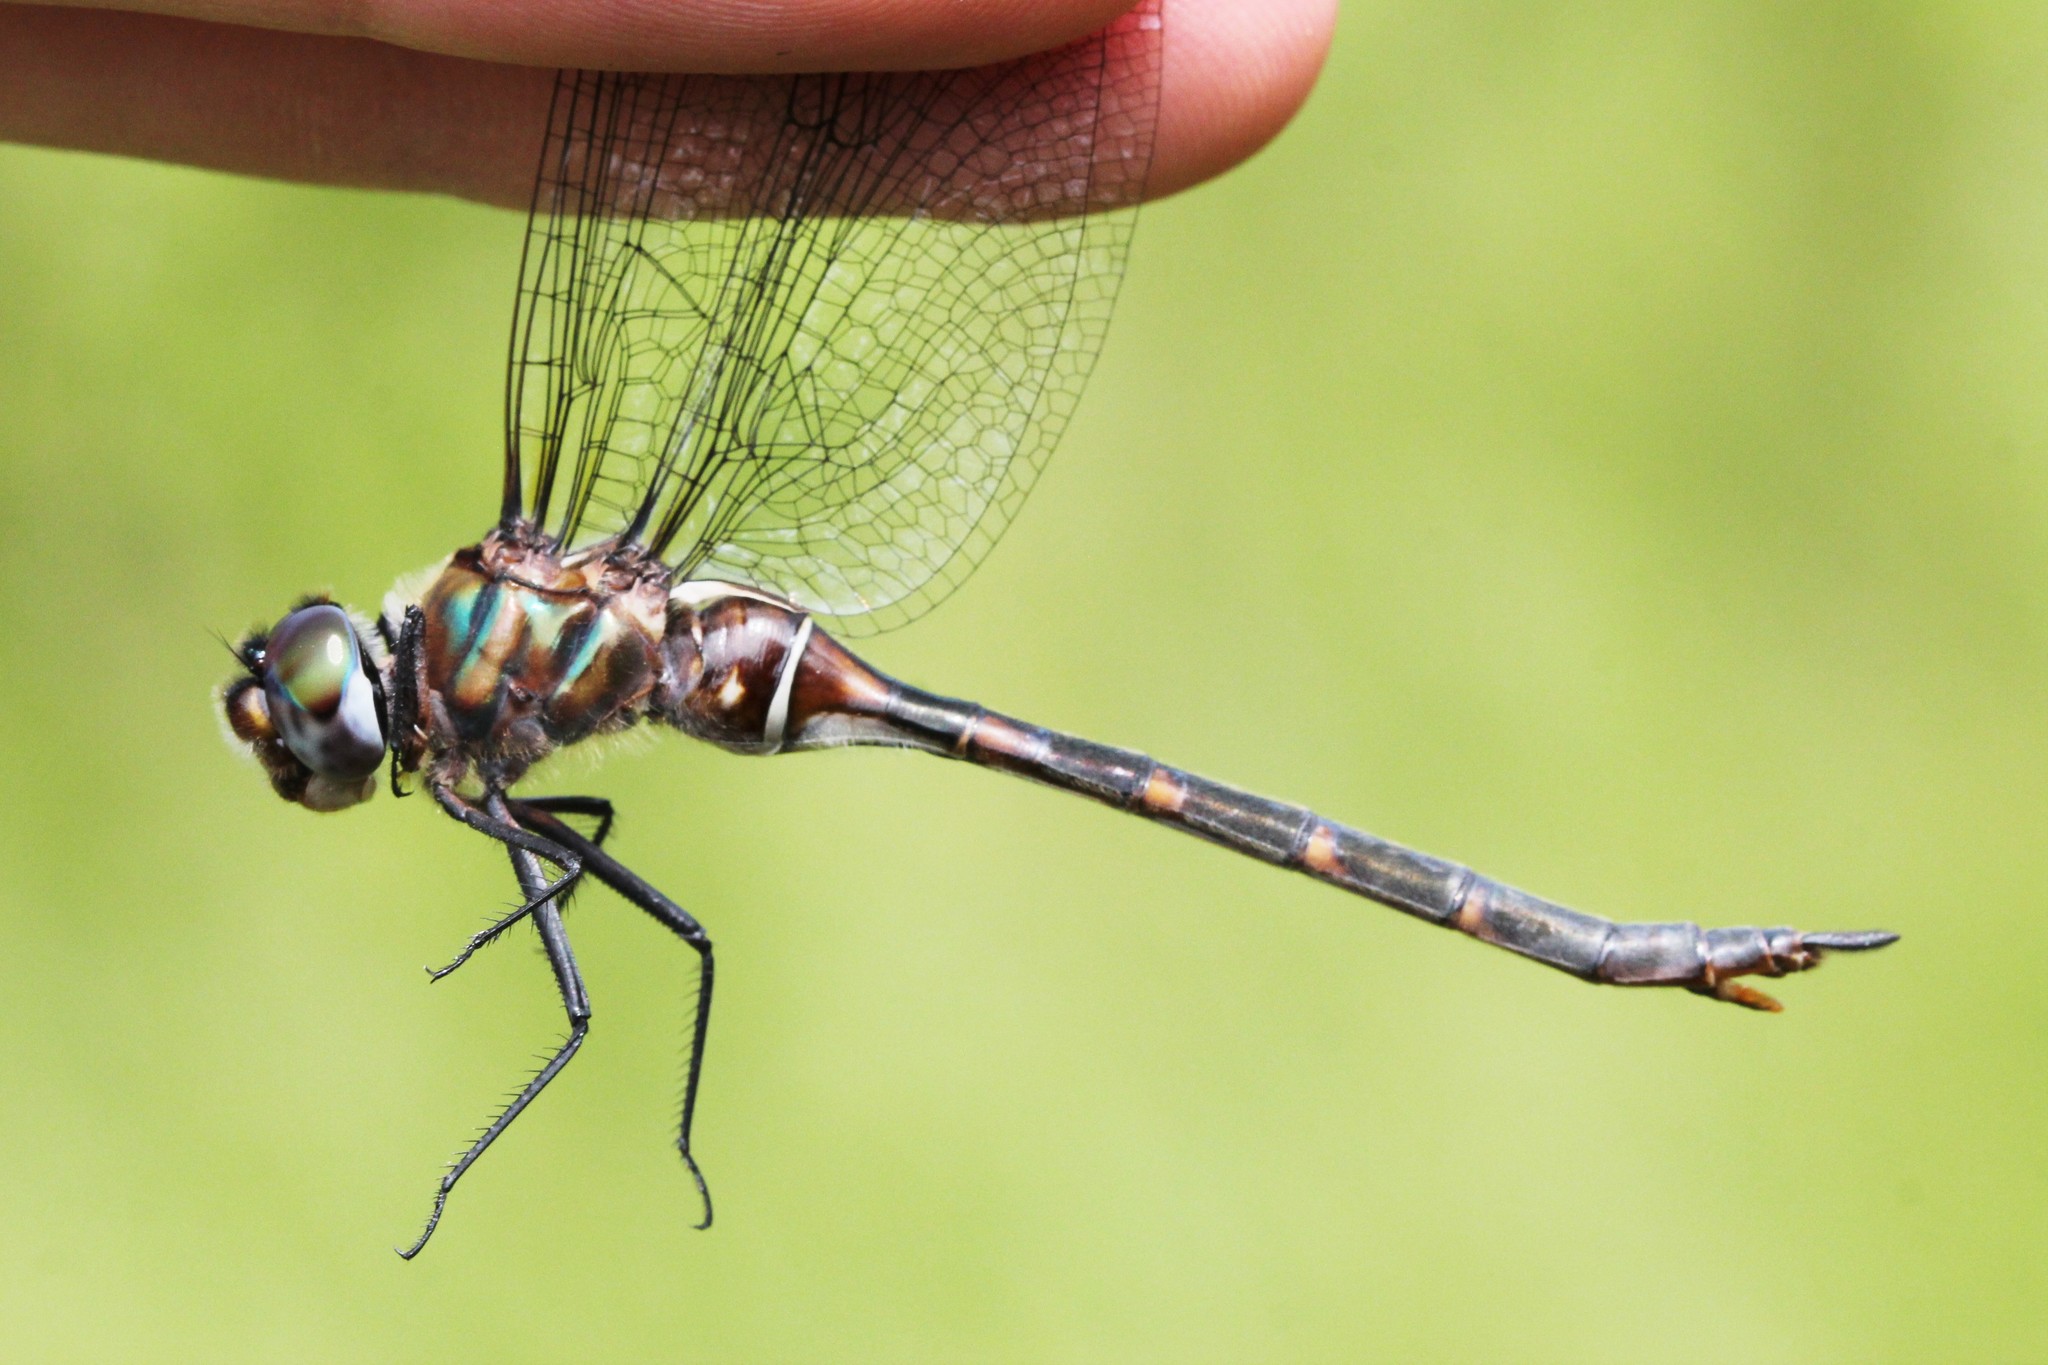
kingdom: Animalia
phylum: Arthropoda
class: Insecta
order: Odonata
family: Corduliidae
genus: Somatochlora
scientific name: Somatochlora incurvata
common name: Incurvate emerald
